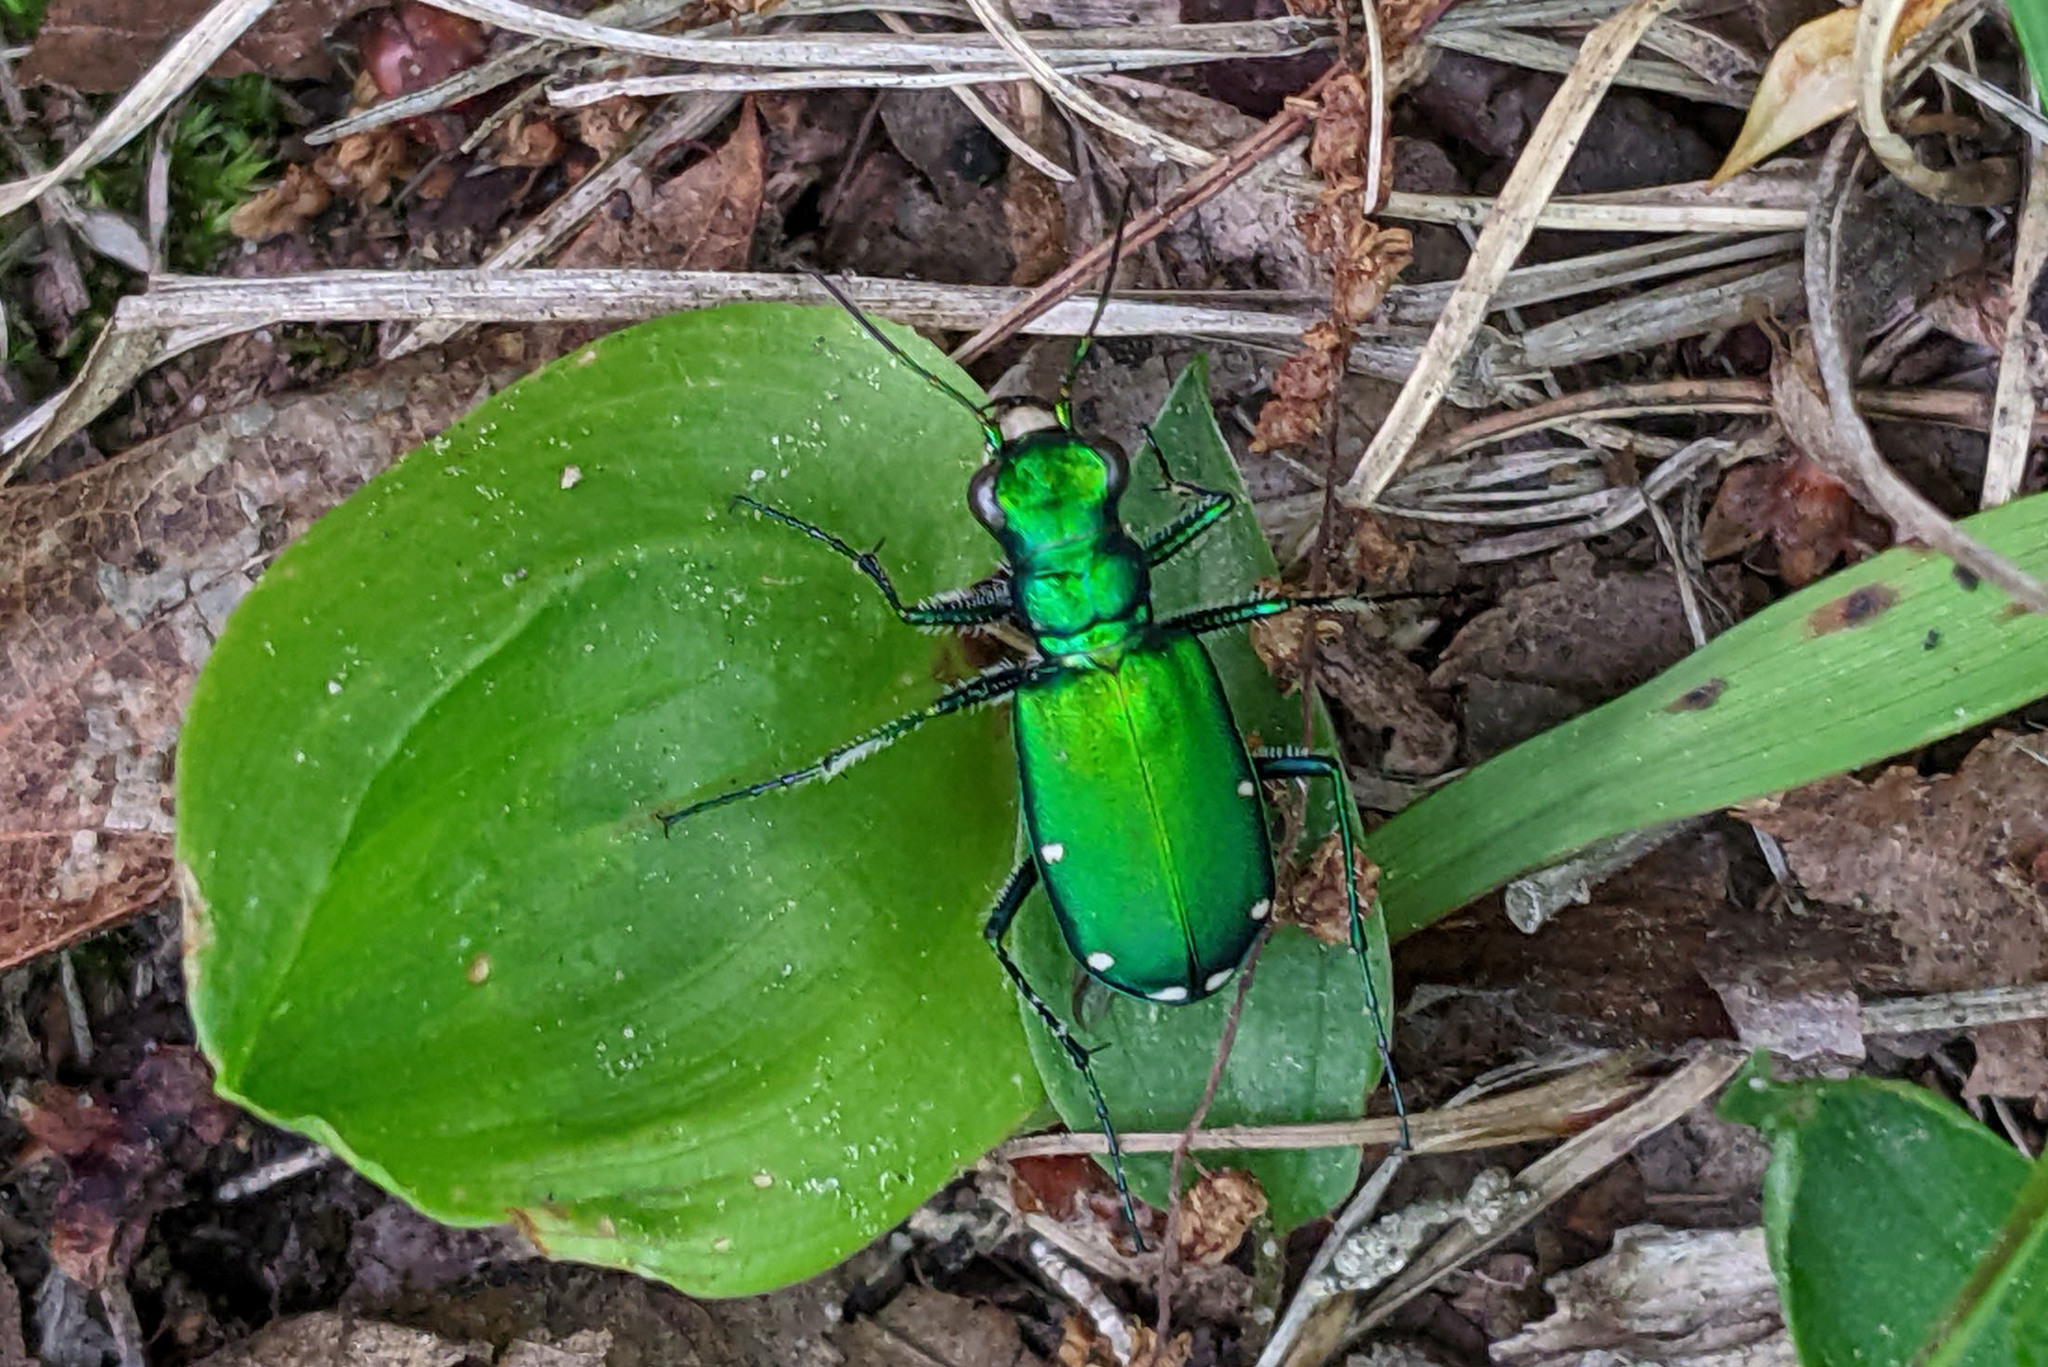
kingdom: Animalia
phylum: Arthropoda
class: Insecta
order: Coleoptera
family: Carabidae
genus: Cicindela
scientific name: Cicindela sexguttata
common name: Six-spotted tiger beetle
